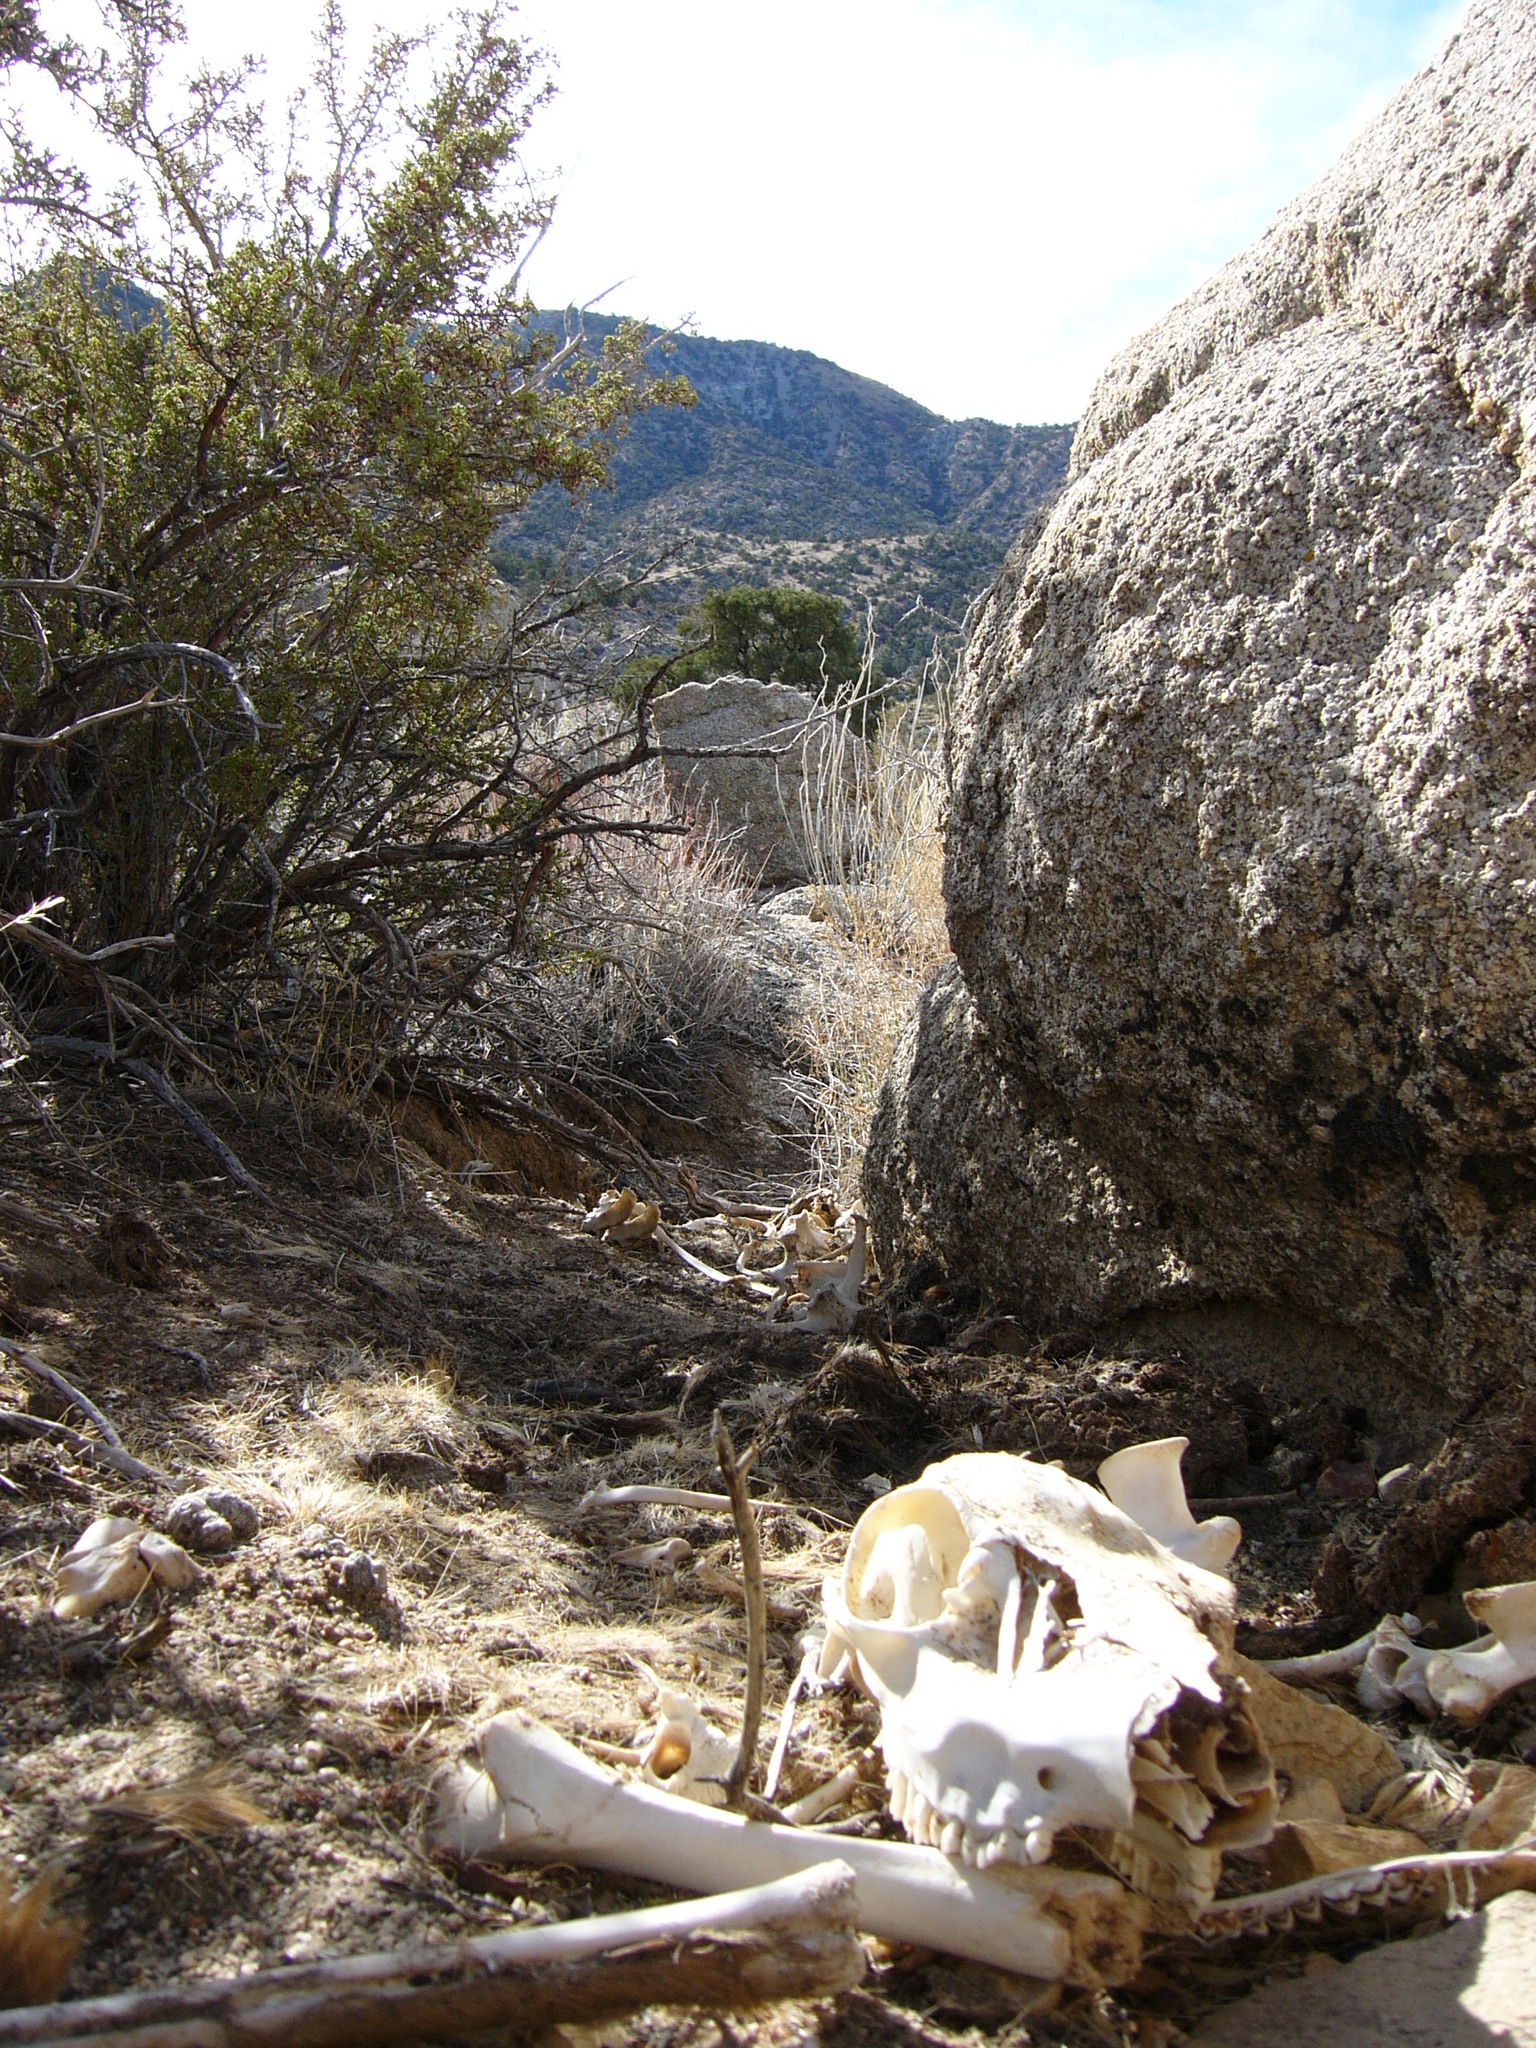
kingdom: Animalia
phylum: Chordata
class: Mammalia
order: Artiodactyla
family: Cervidae
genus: Odocoileus
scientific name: Odocoileus hemionus
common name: Mule deer
